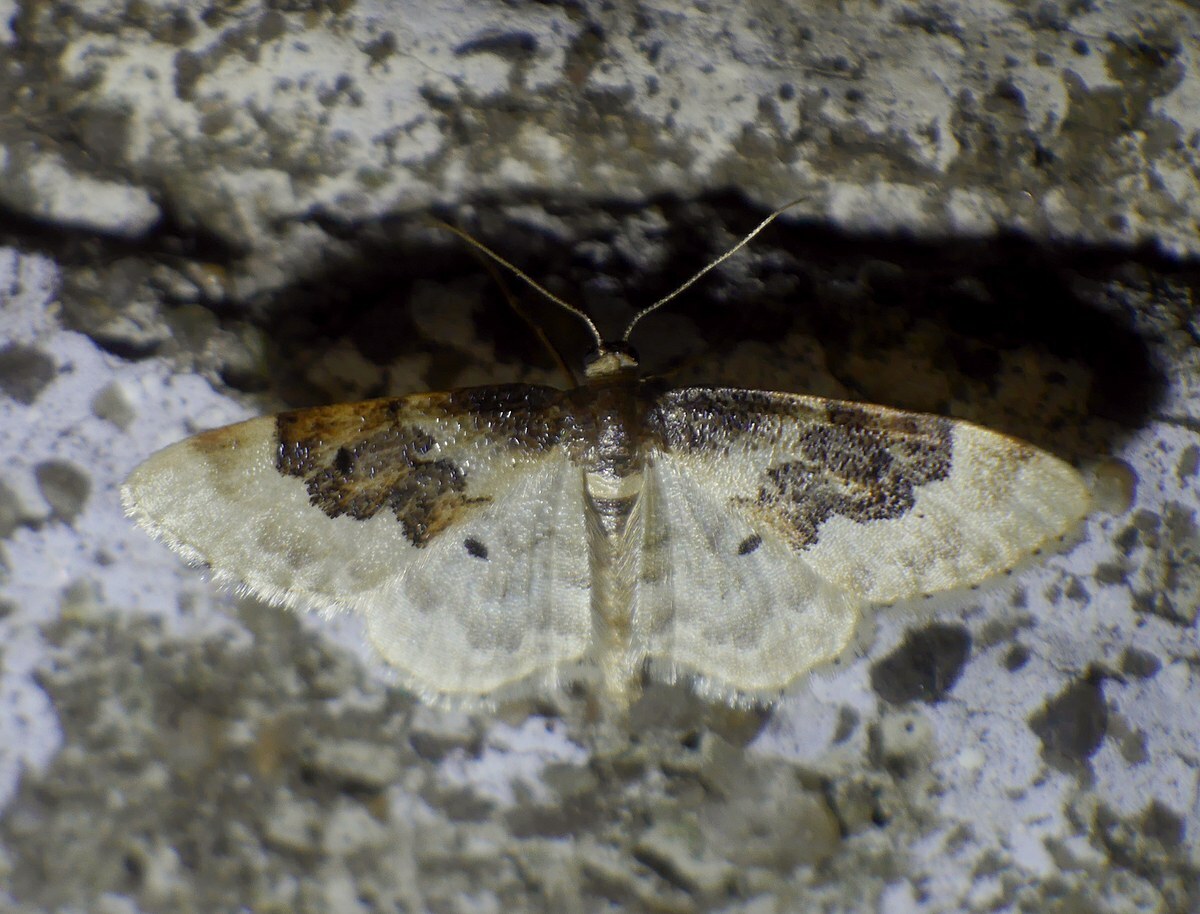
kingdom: Animalia
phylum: Arthropoda
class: Insecta
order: Lepidoptera
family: Geometridae
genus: Idaea
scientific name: Idaea rusticata
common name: Least carpet
